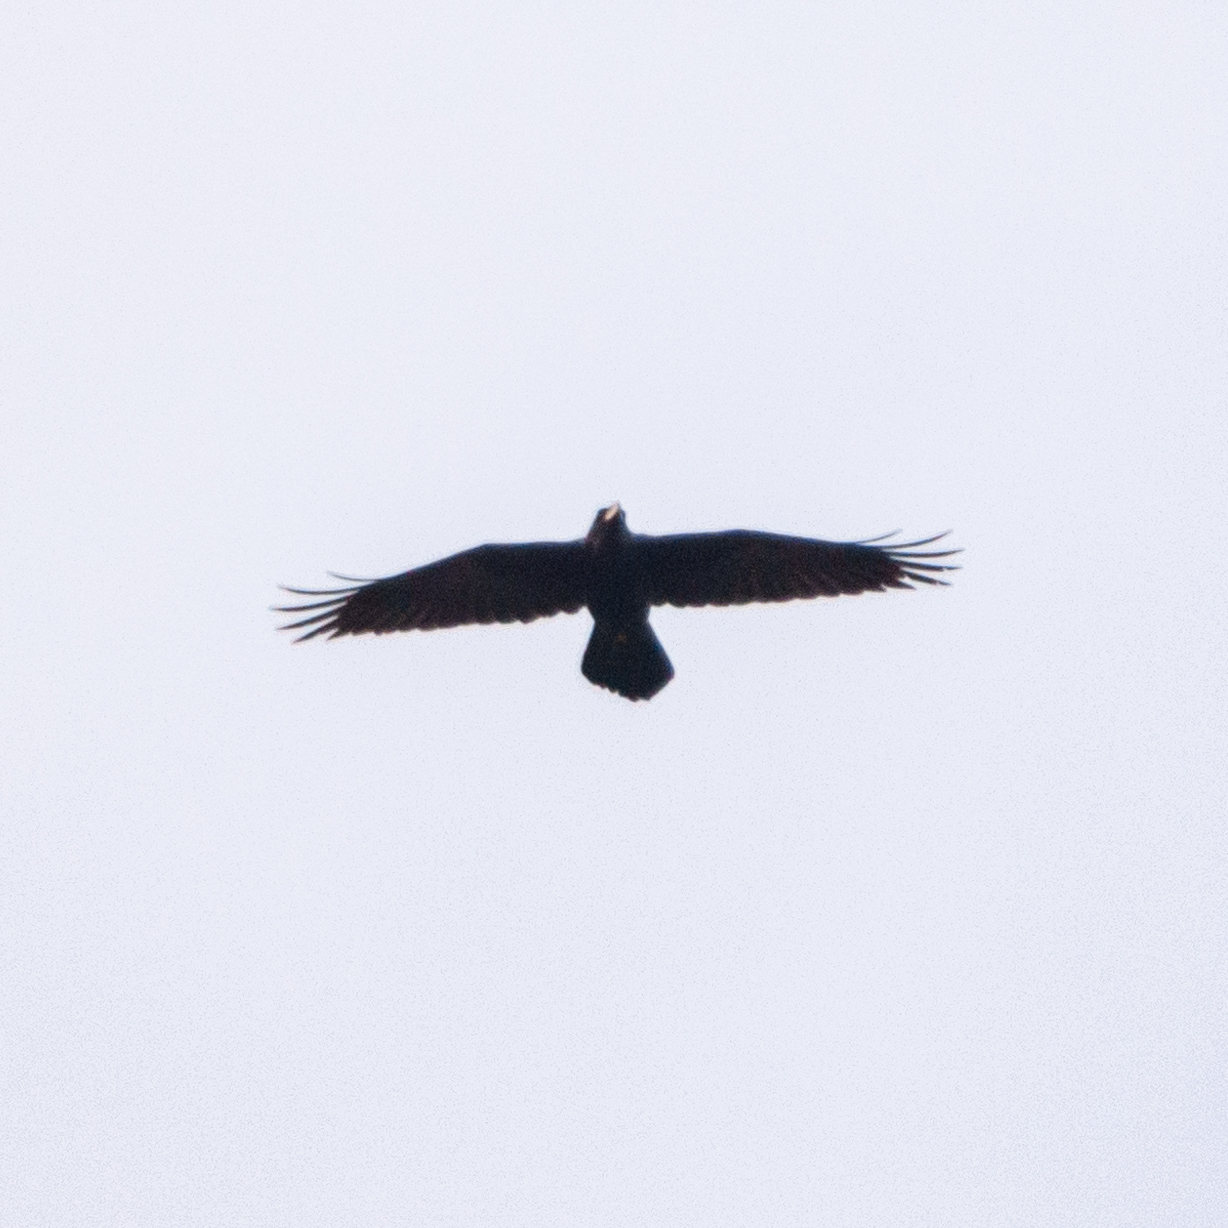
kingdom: Animalia
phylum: Chordata
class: Aves
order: Passeriformes
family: Corvidae
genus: Corvus
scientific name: Corvus corax
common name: Common raven
